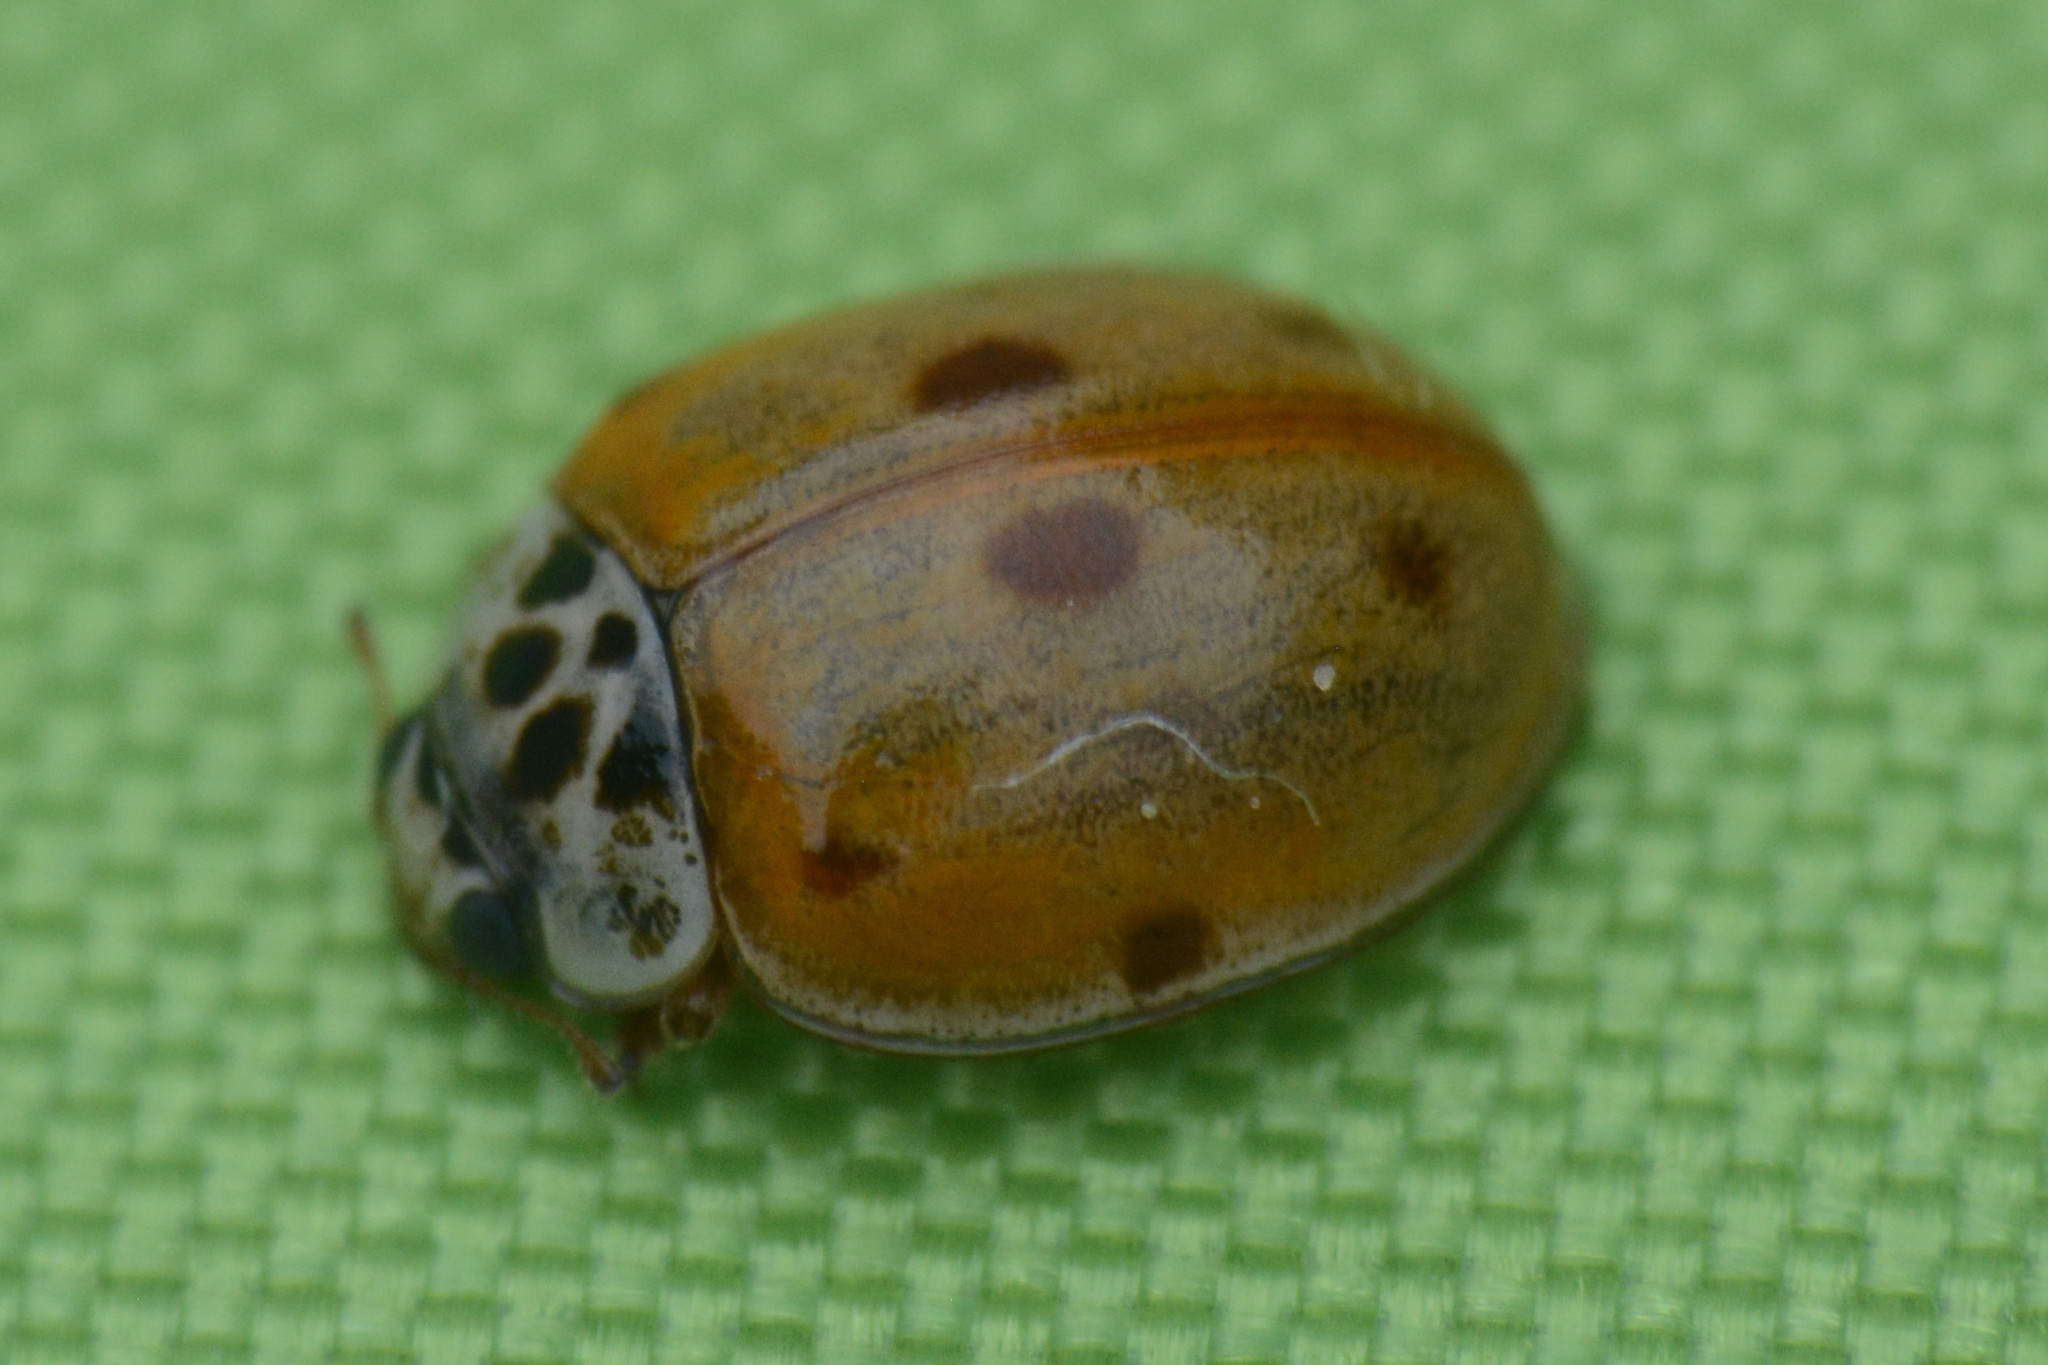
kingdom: Animalia
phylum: Arthropoda
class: Insecta
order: Coleoptera
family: Coccinellidae
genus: Adalia
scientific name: Adalia decempunctata
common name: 10-spot ladybird
